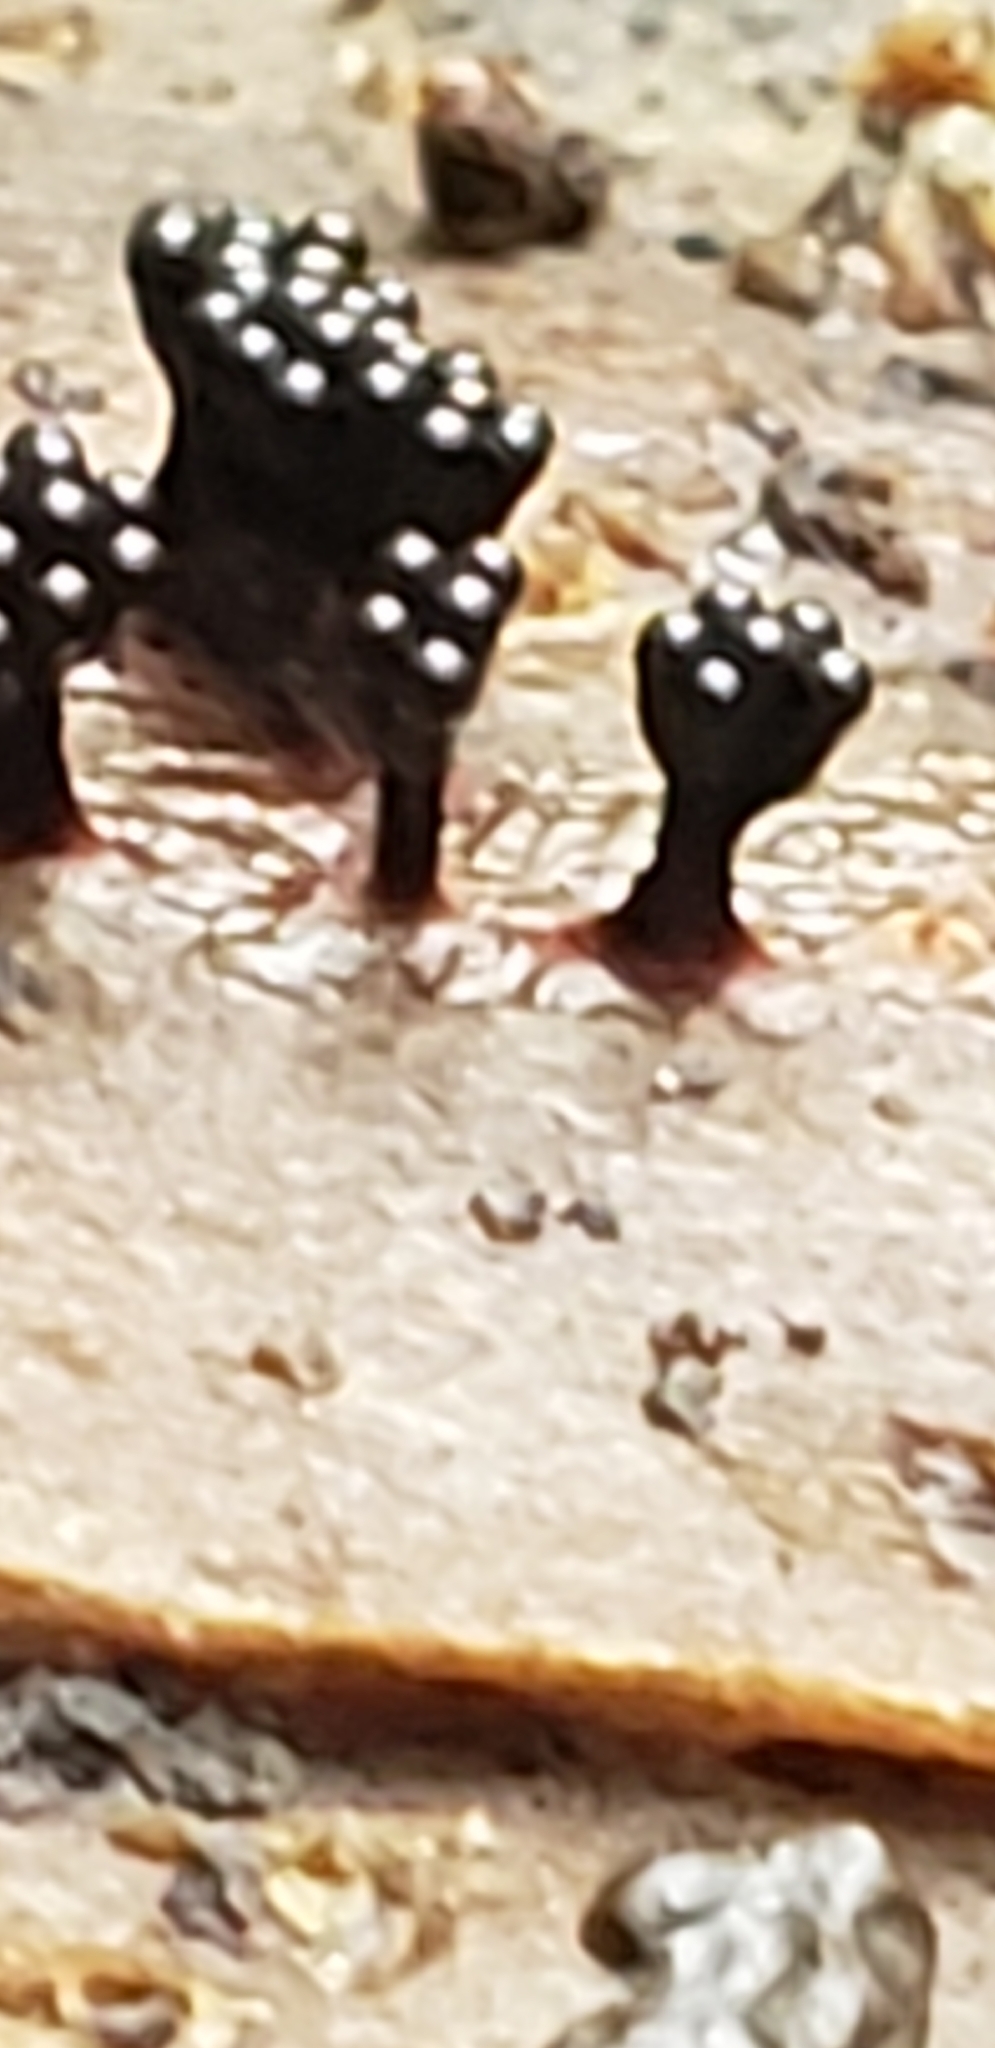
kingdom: Protozoa
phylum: Mycetozoa
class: Myxomycetes
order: Trichiales
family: Trichiaceae
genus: Metatrichia
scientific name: Metatrichia vesparia
